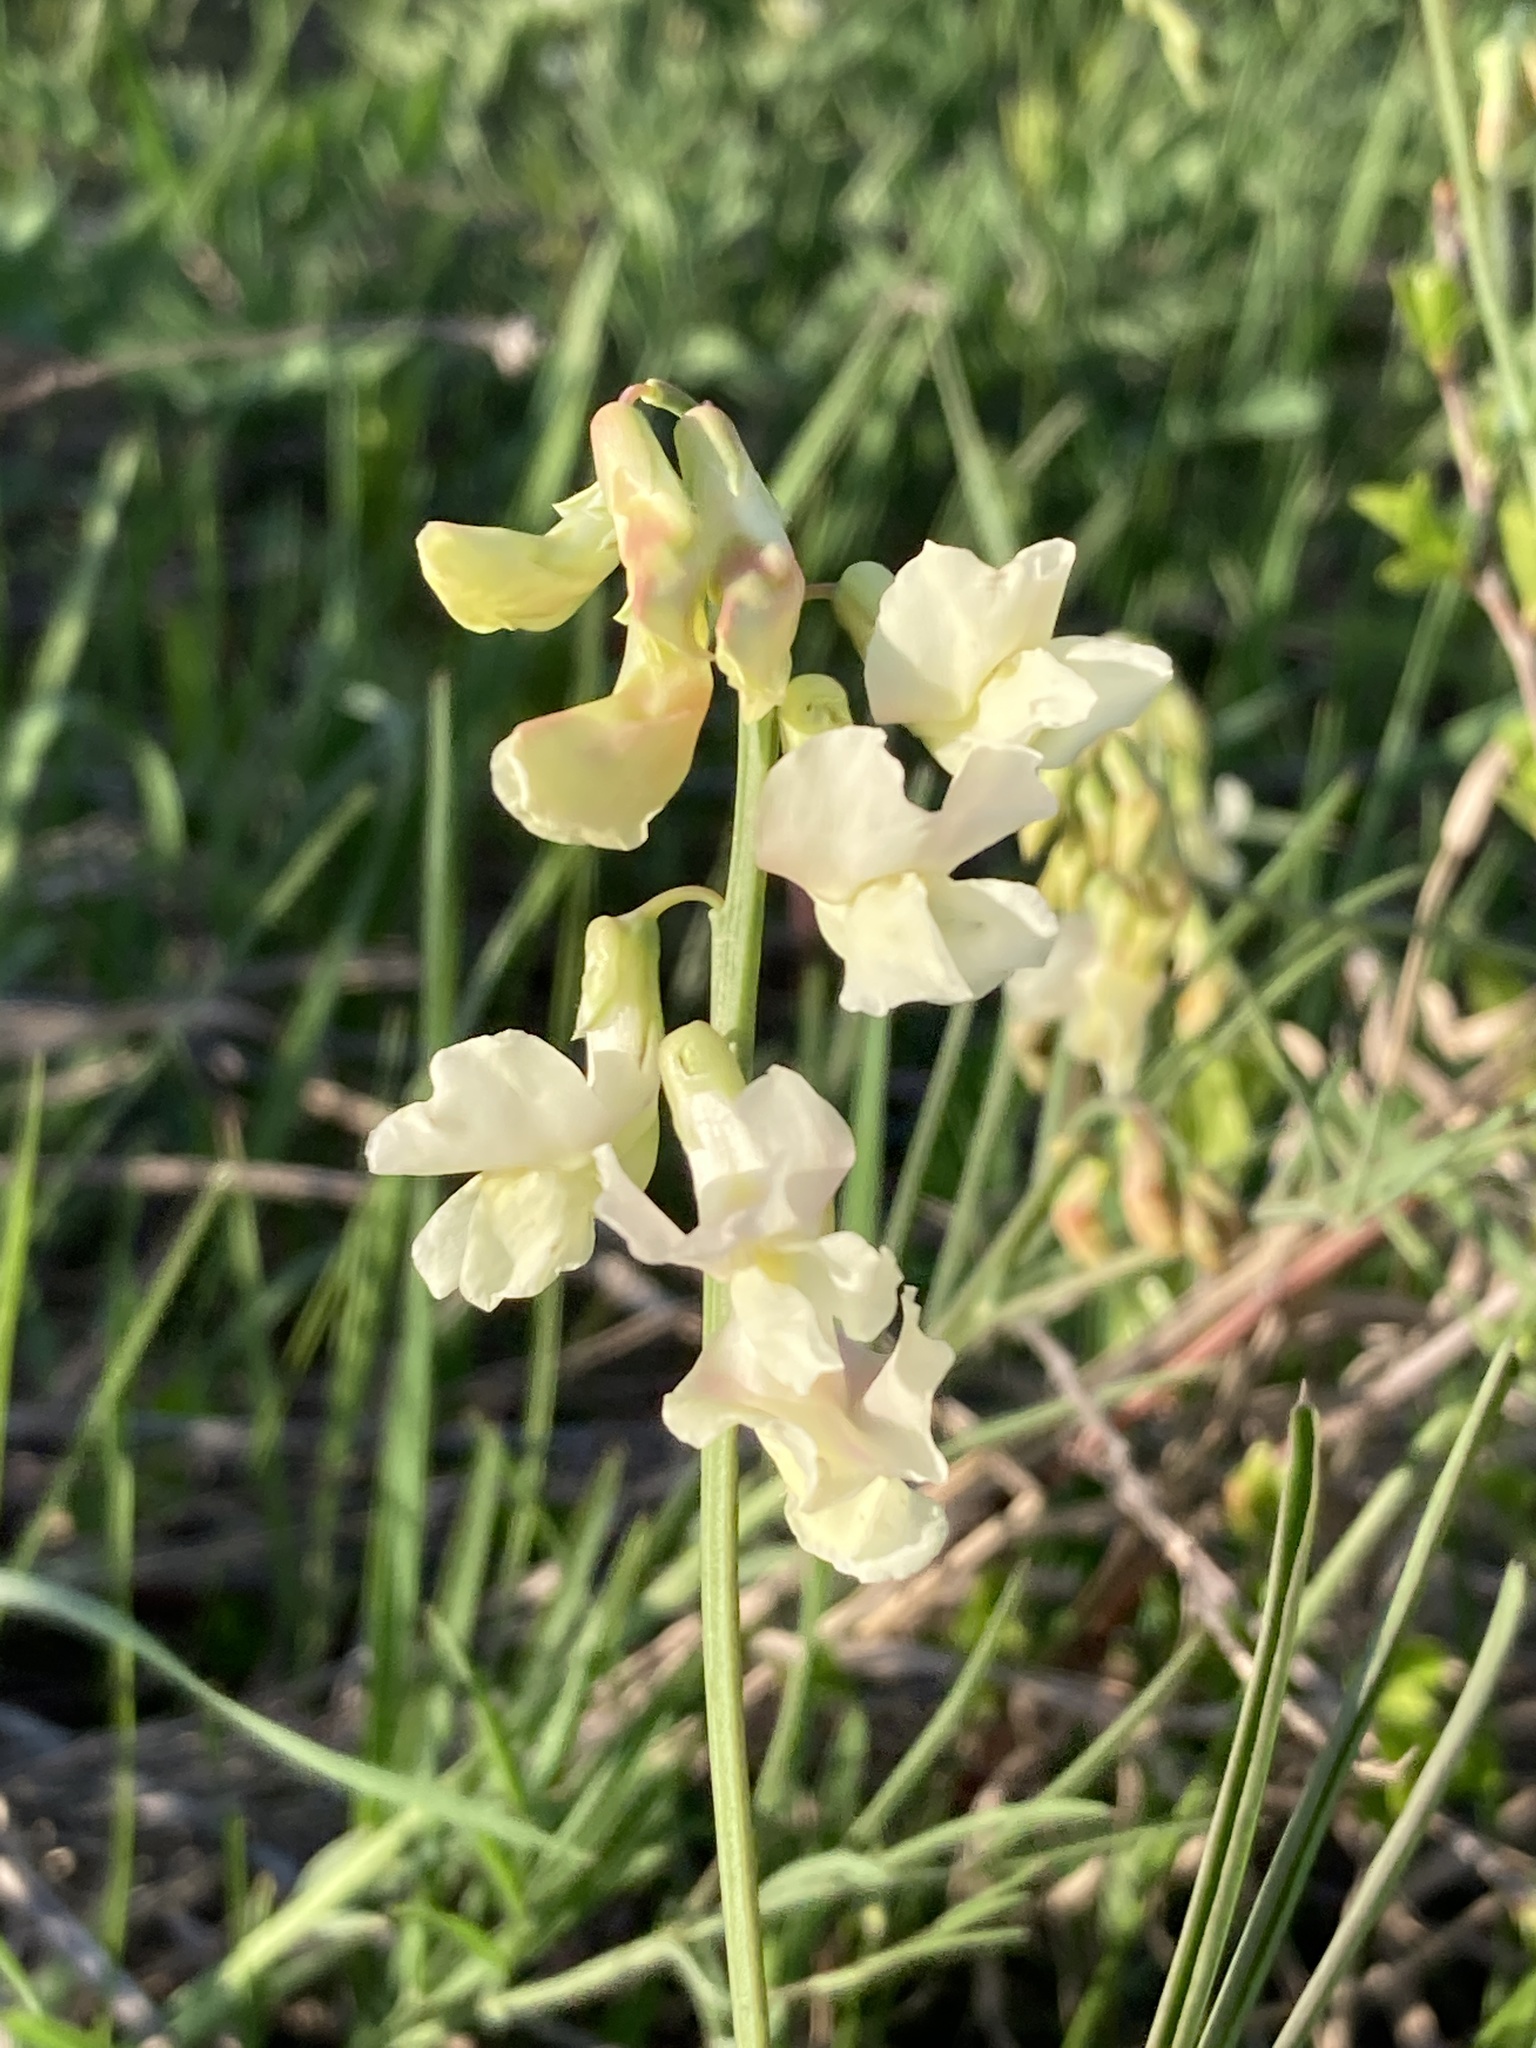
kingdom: Plantae
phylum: Tracheophyta
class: Magnoliopsida
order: Fabales
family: Fabaceae
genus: Lathyrus
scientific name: Lathyrus pannonicus
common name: Pea
